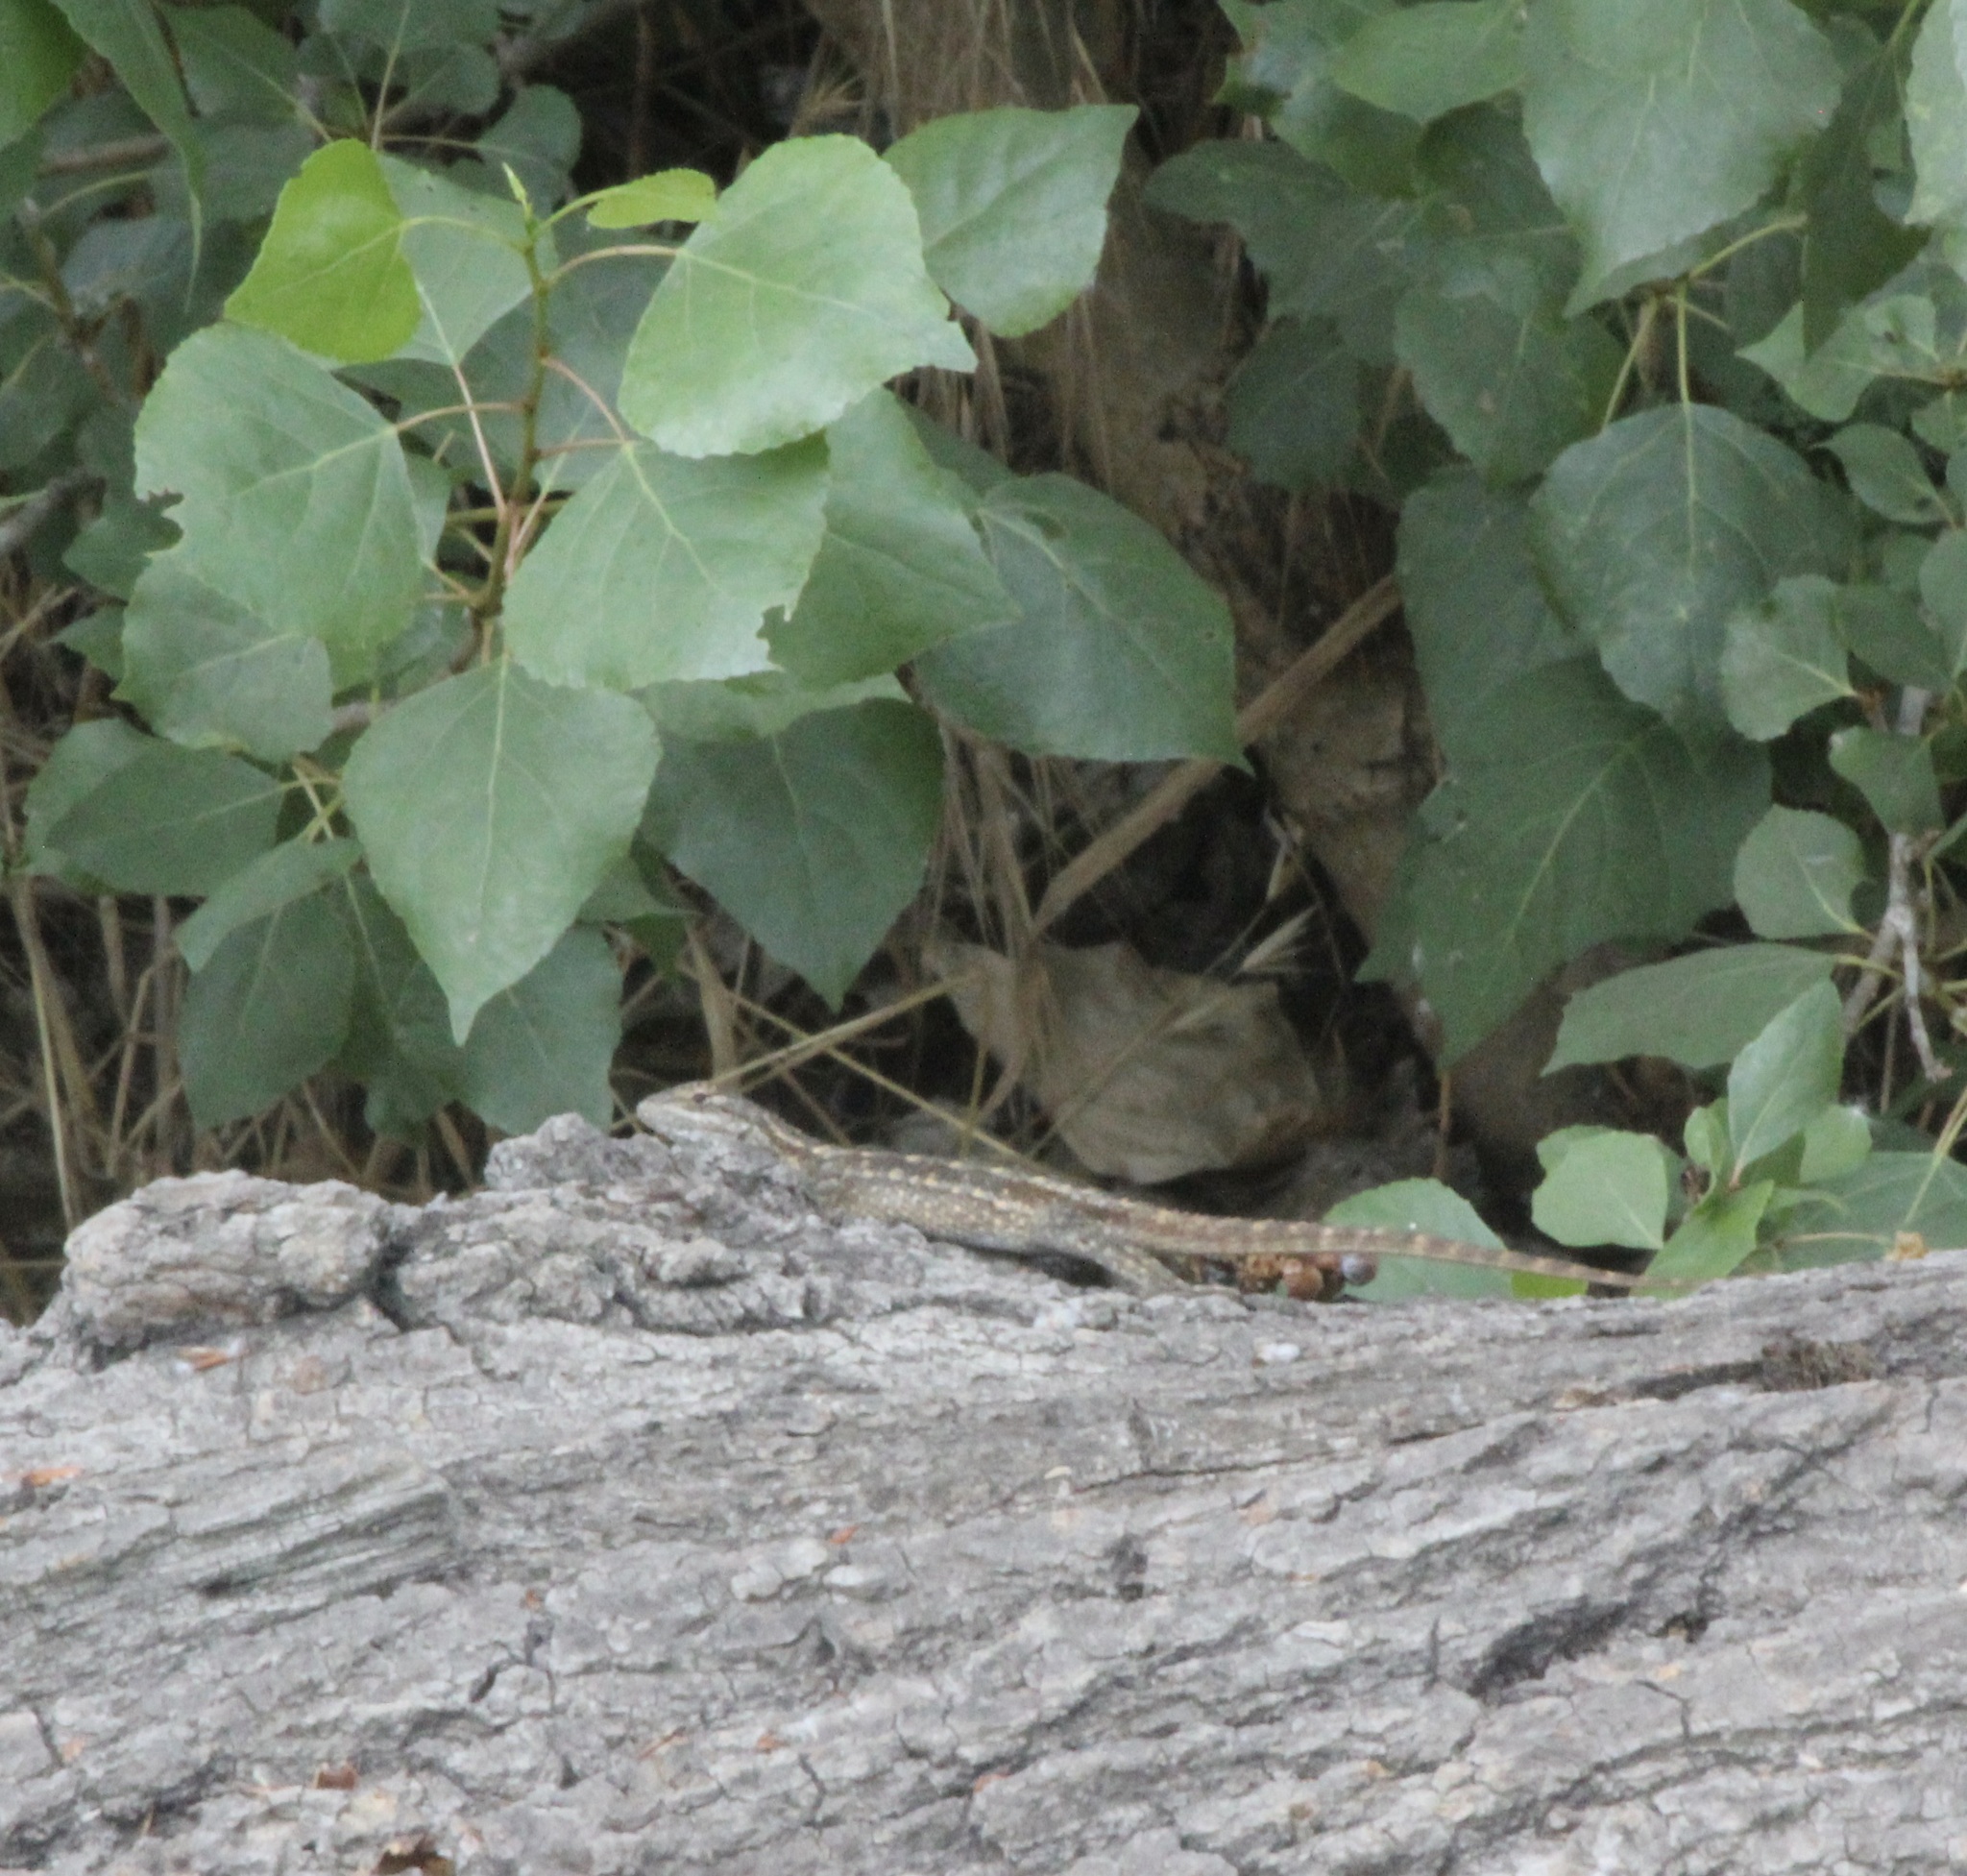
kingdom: Animalia
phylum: Chordata
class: Squamata
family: Phrynosomatidae
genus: Sceloporus
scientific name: Sceloporus occidentalis
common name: Western fence lizard
